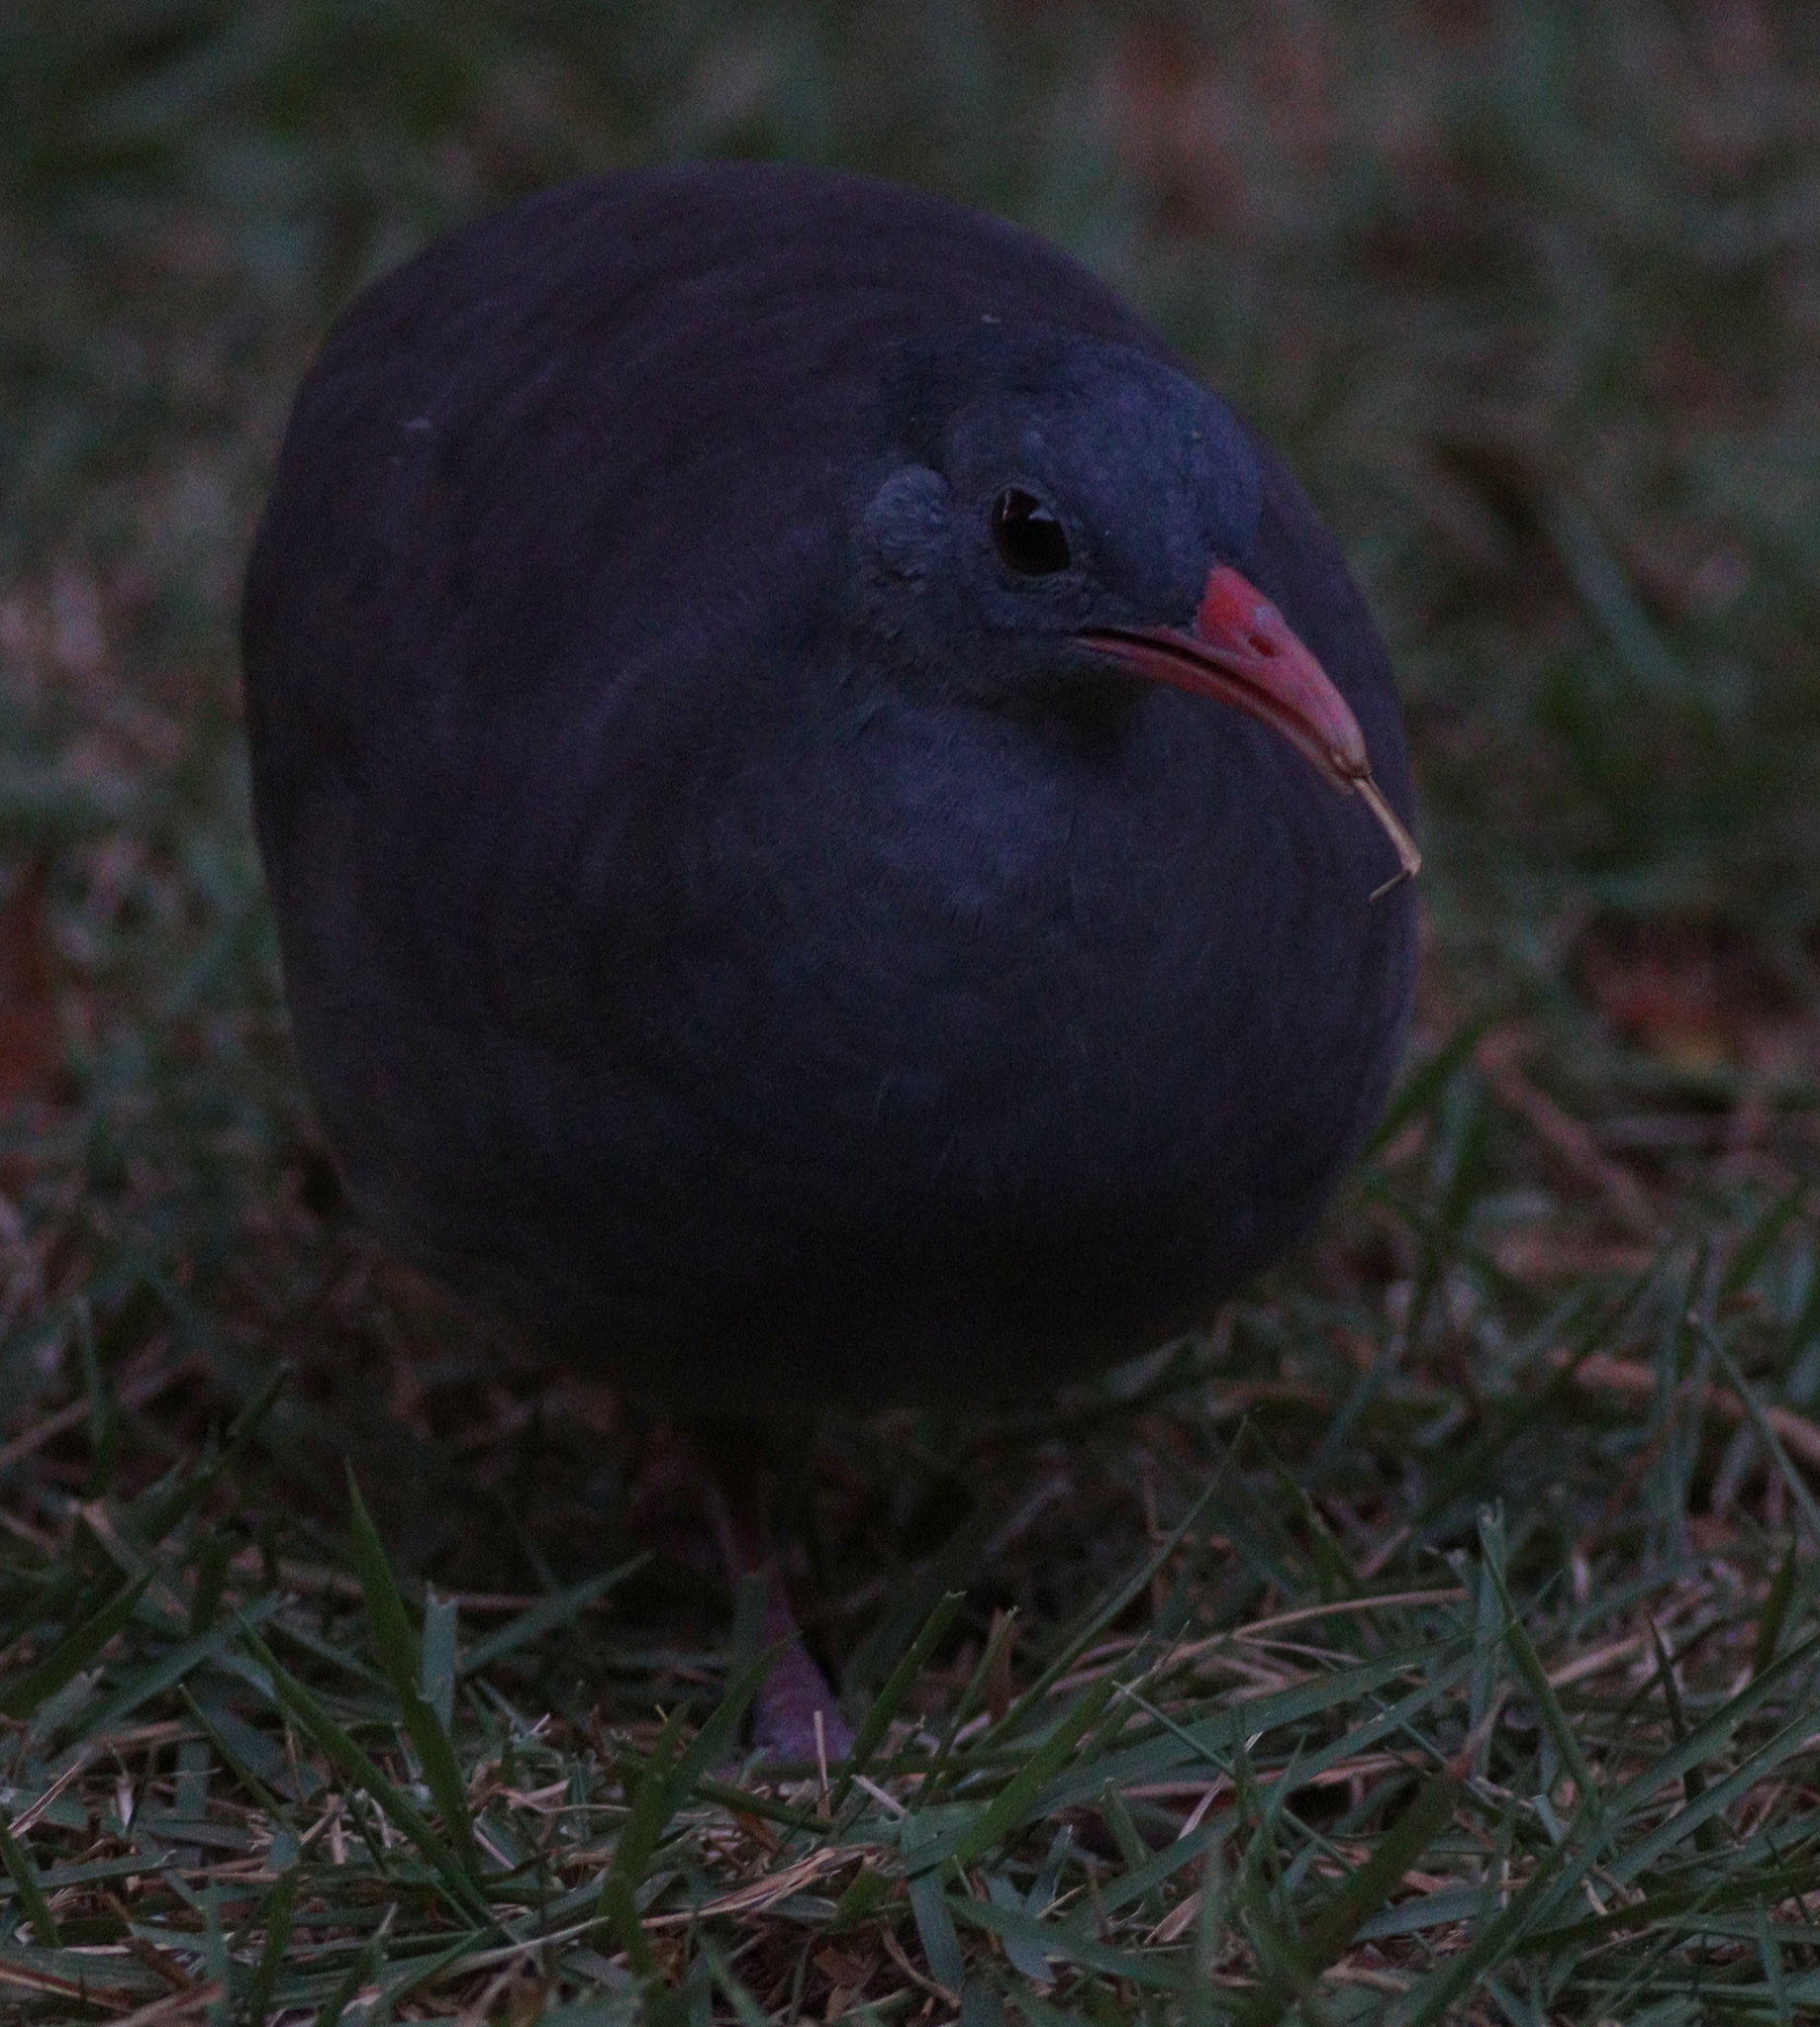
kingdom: Animalia
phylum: Chordata
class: Aves
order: Tinamiformes
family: Tinamidae
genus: Crypturellus
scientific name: Crypturellus tataupa
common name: Tataupa tinamou
